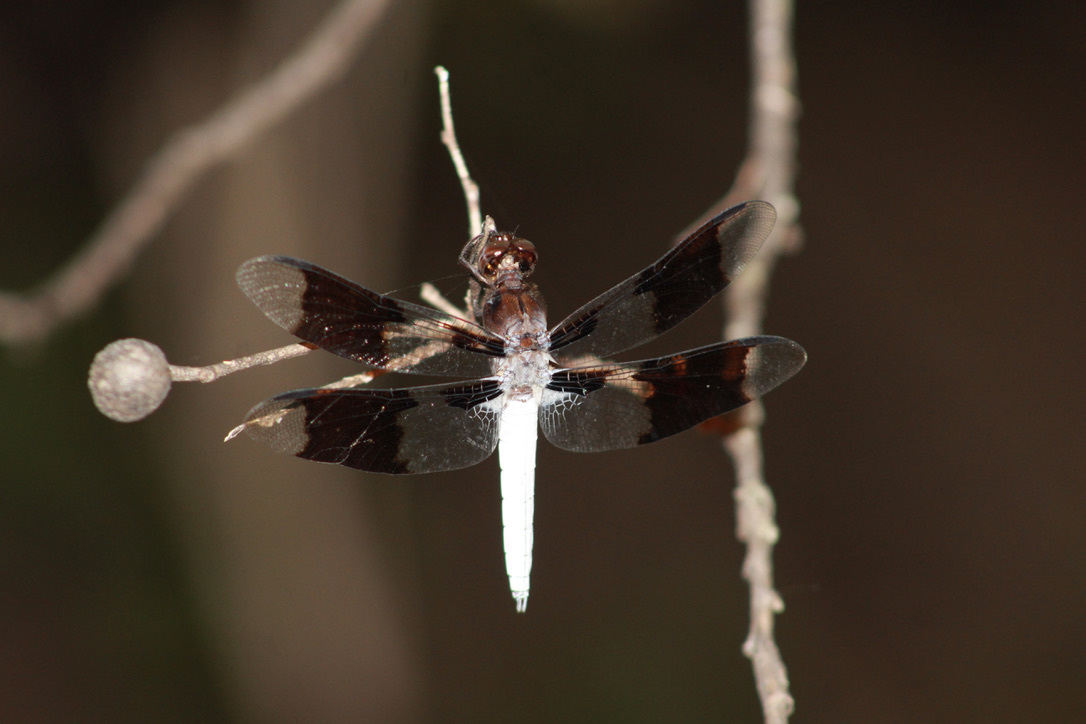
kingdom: Animalia
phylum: Arthropoda
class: Insecta
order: Odonata
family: Libellulidae
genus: Plathemis
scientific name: Plathemis lydia
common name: Common whitetail
